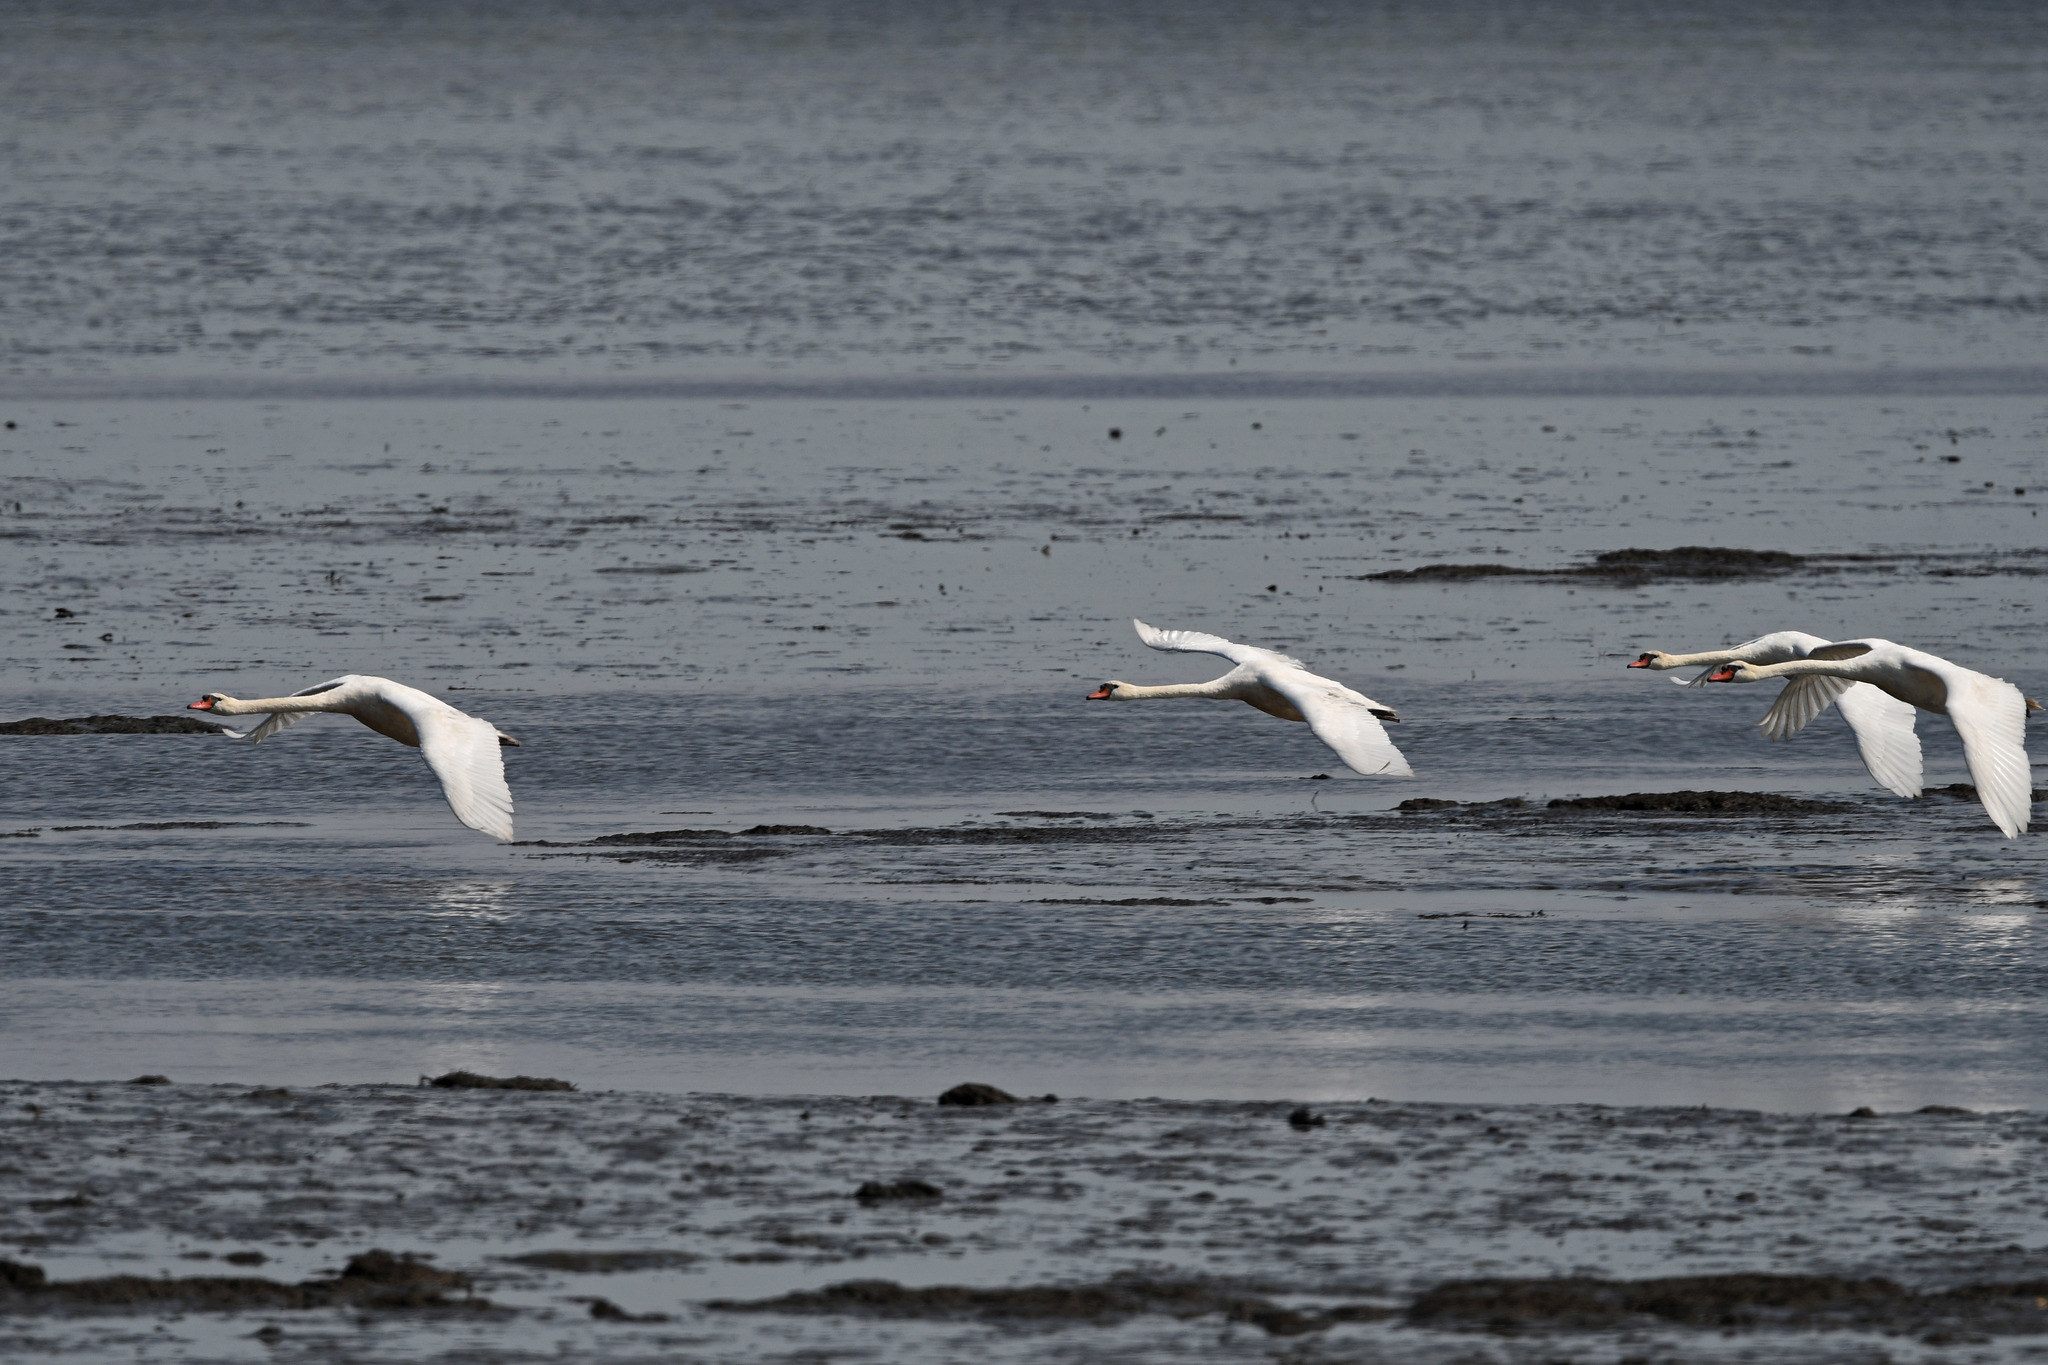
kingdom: Animalia
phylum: Chordata
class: Aves
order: Anseriformes
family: Anatidae
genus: Cygnus
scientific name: Cygnus olor
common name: Mute swan
